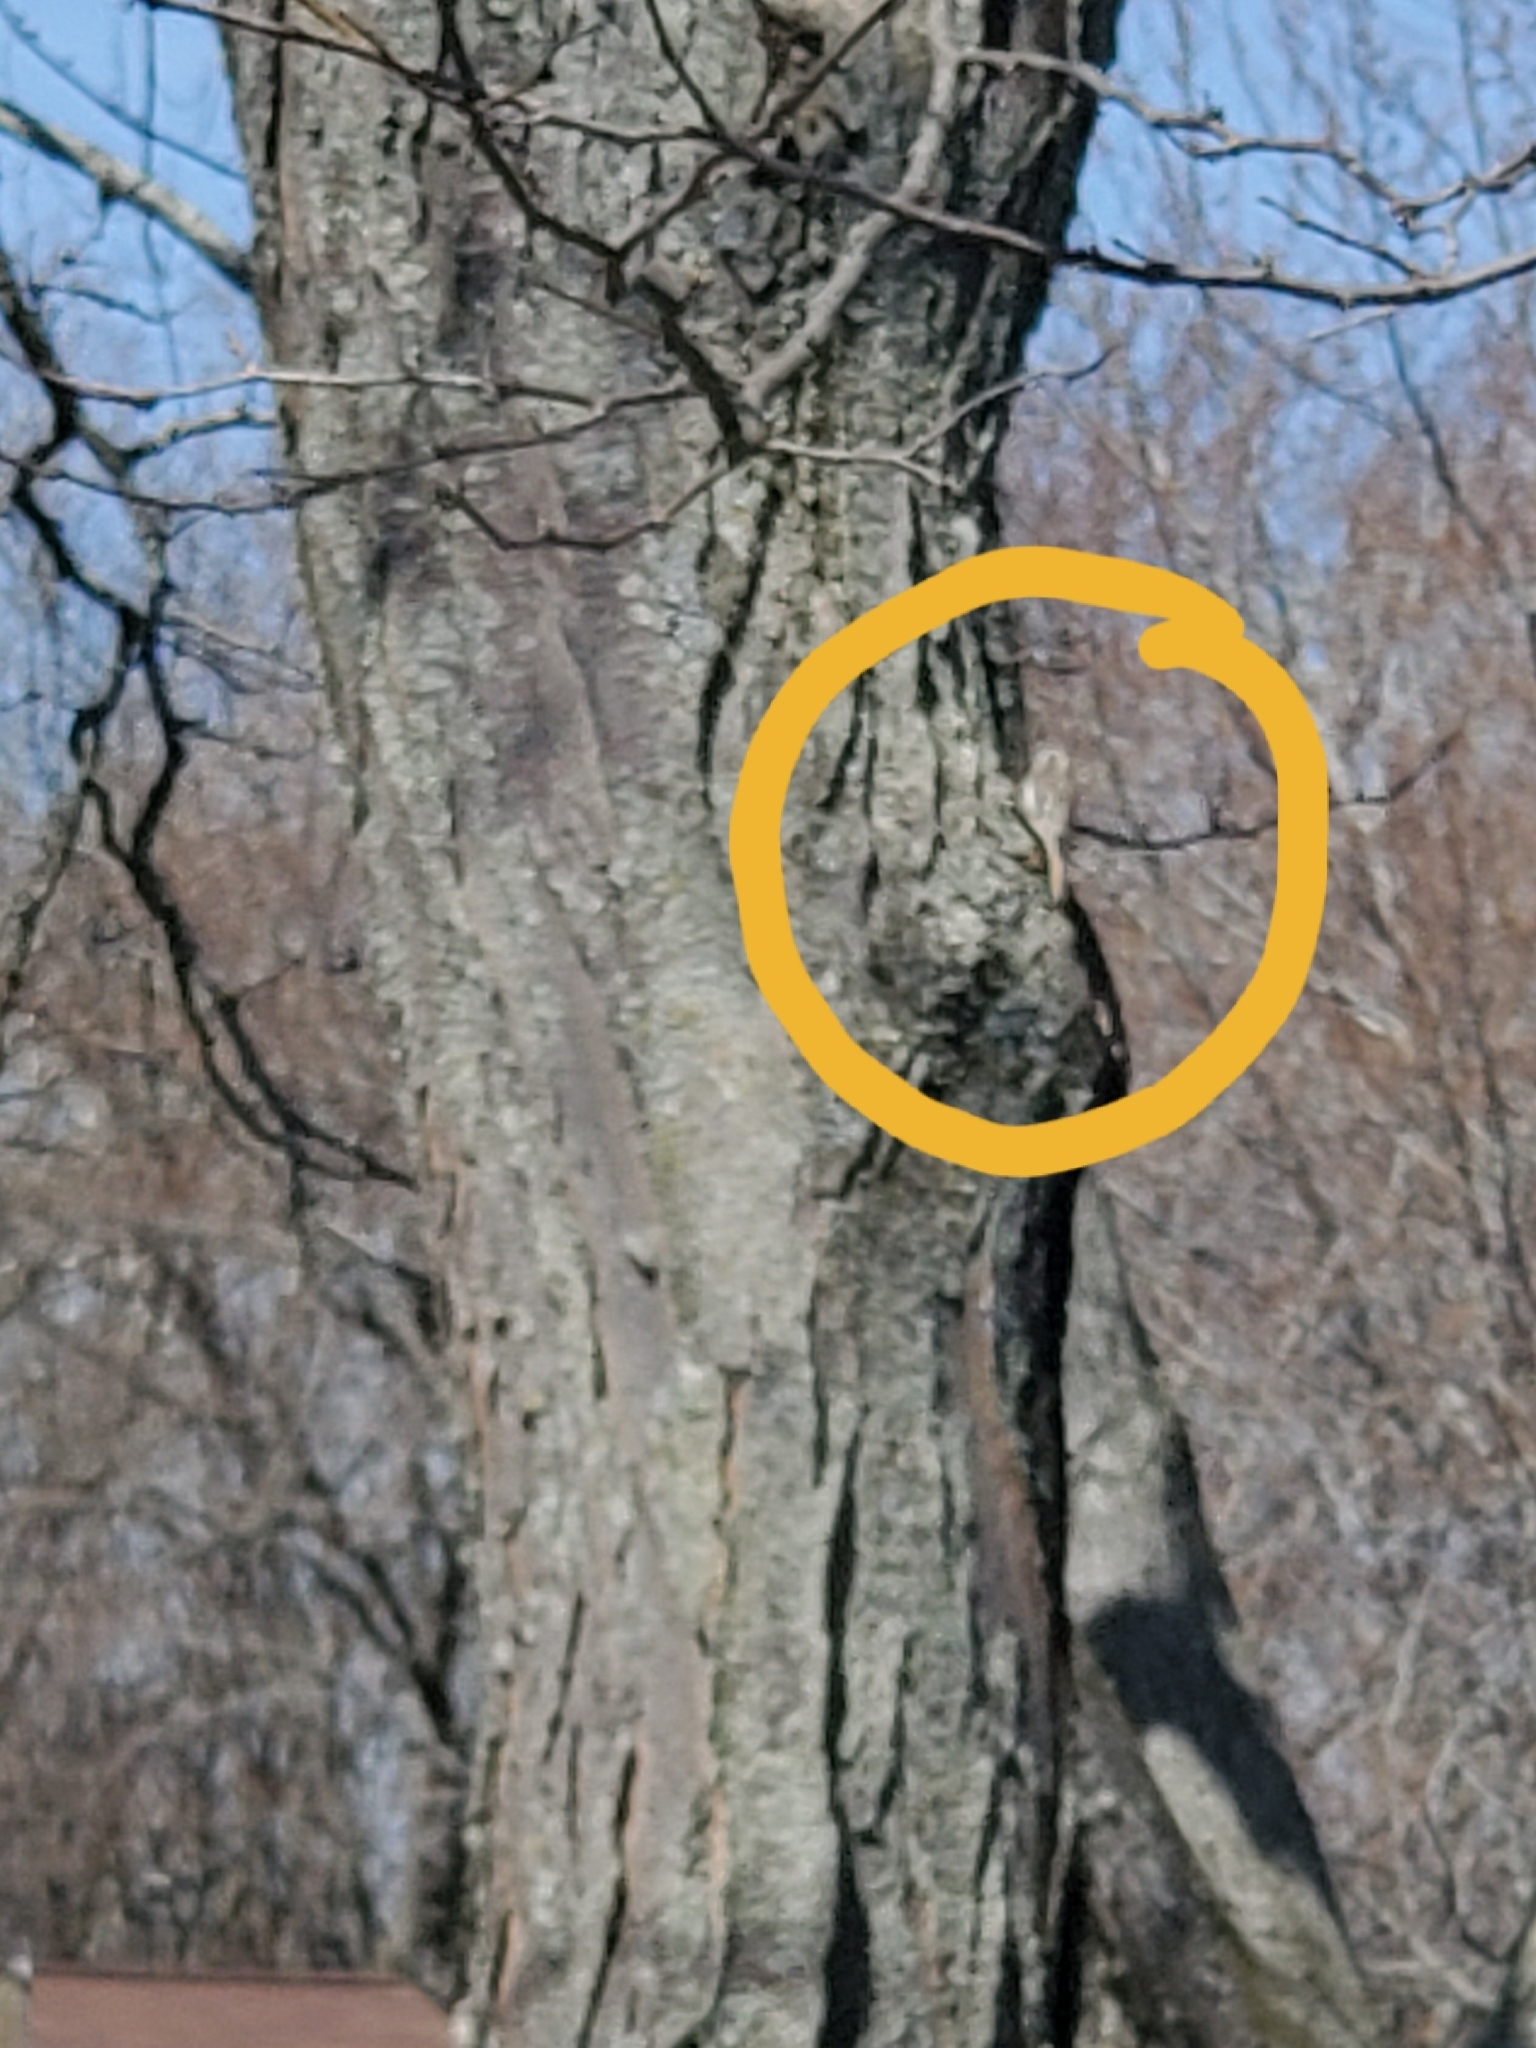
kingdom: Animalia
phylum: Chordata
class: Aves
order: Passeriformes
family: Certhiidae
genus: Certhia
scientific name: Certhia americana
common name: Brown creeper
